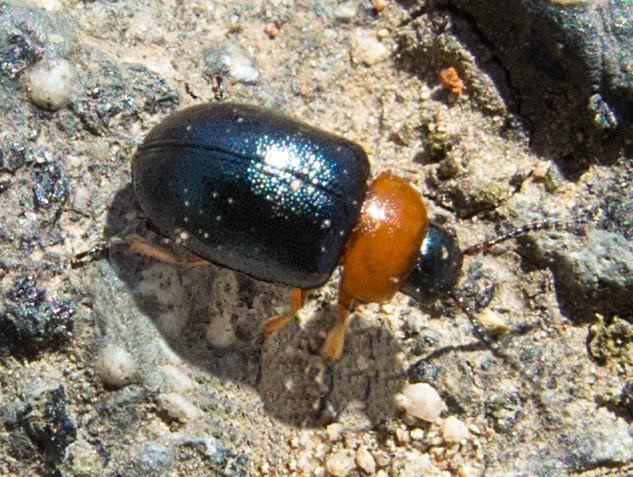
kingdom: Animalia
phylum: Arthropoda
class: Insecta
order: Coleoptera
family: Chrysomelidae
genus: Gastrophysa
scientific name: Gastrophysa polygoni
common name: Knotweed leaf beetle
